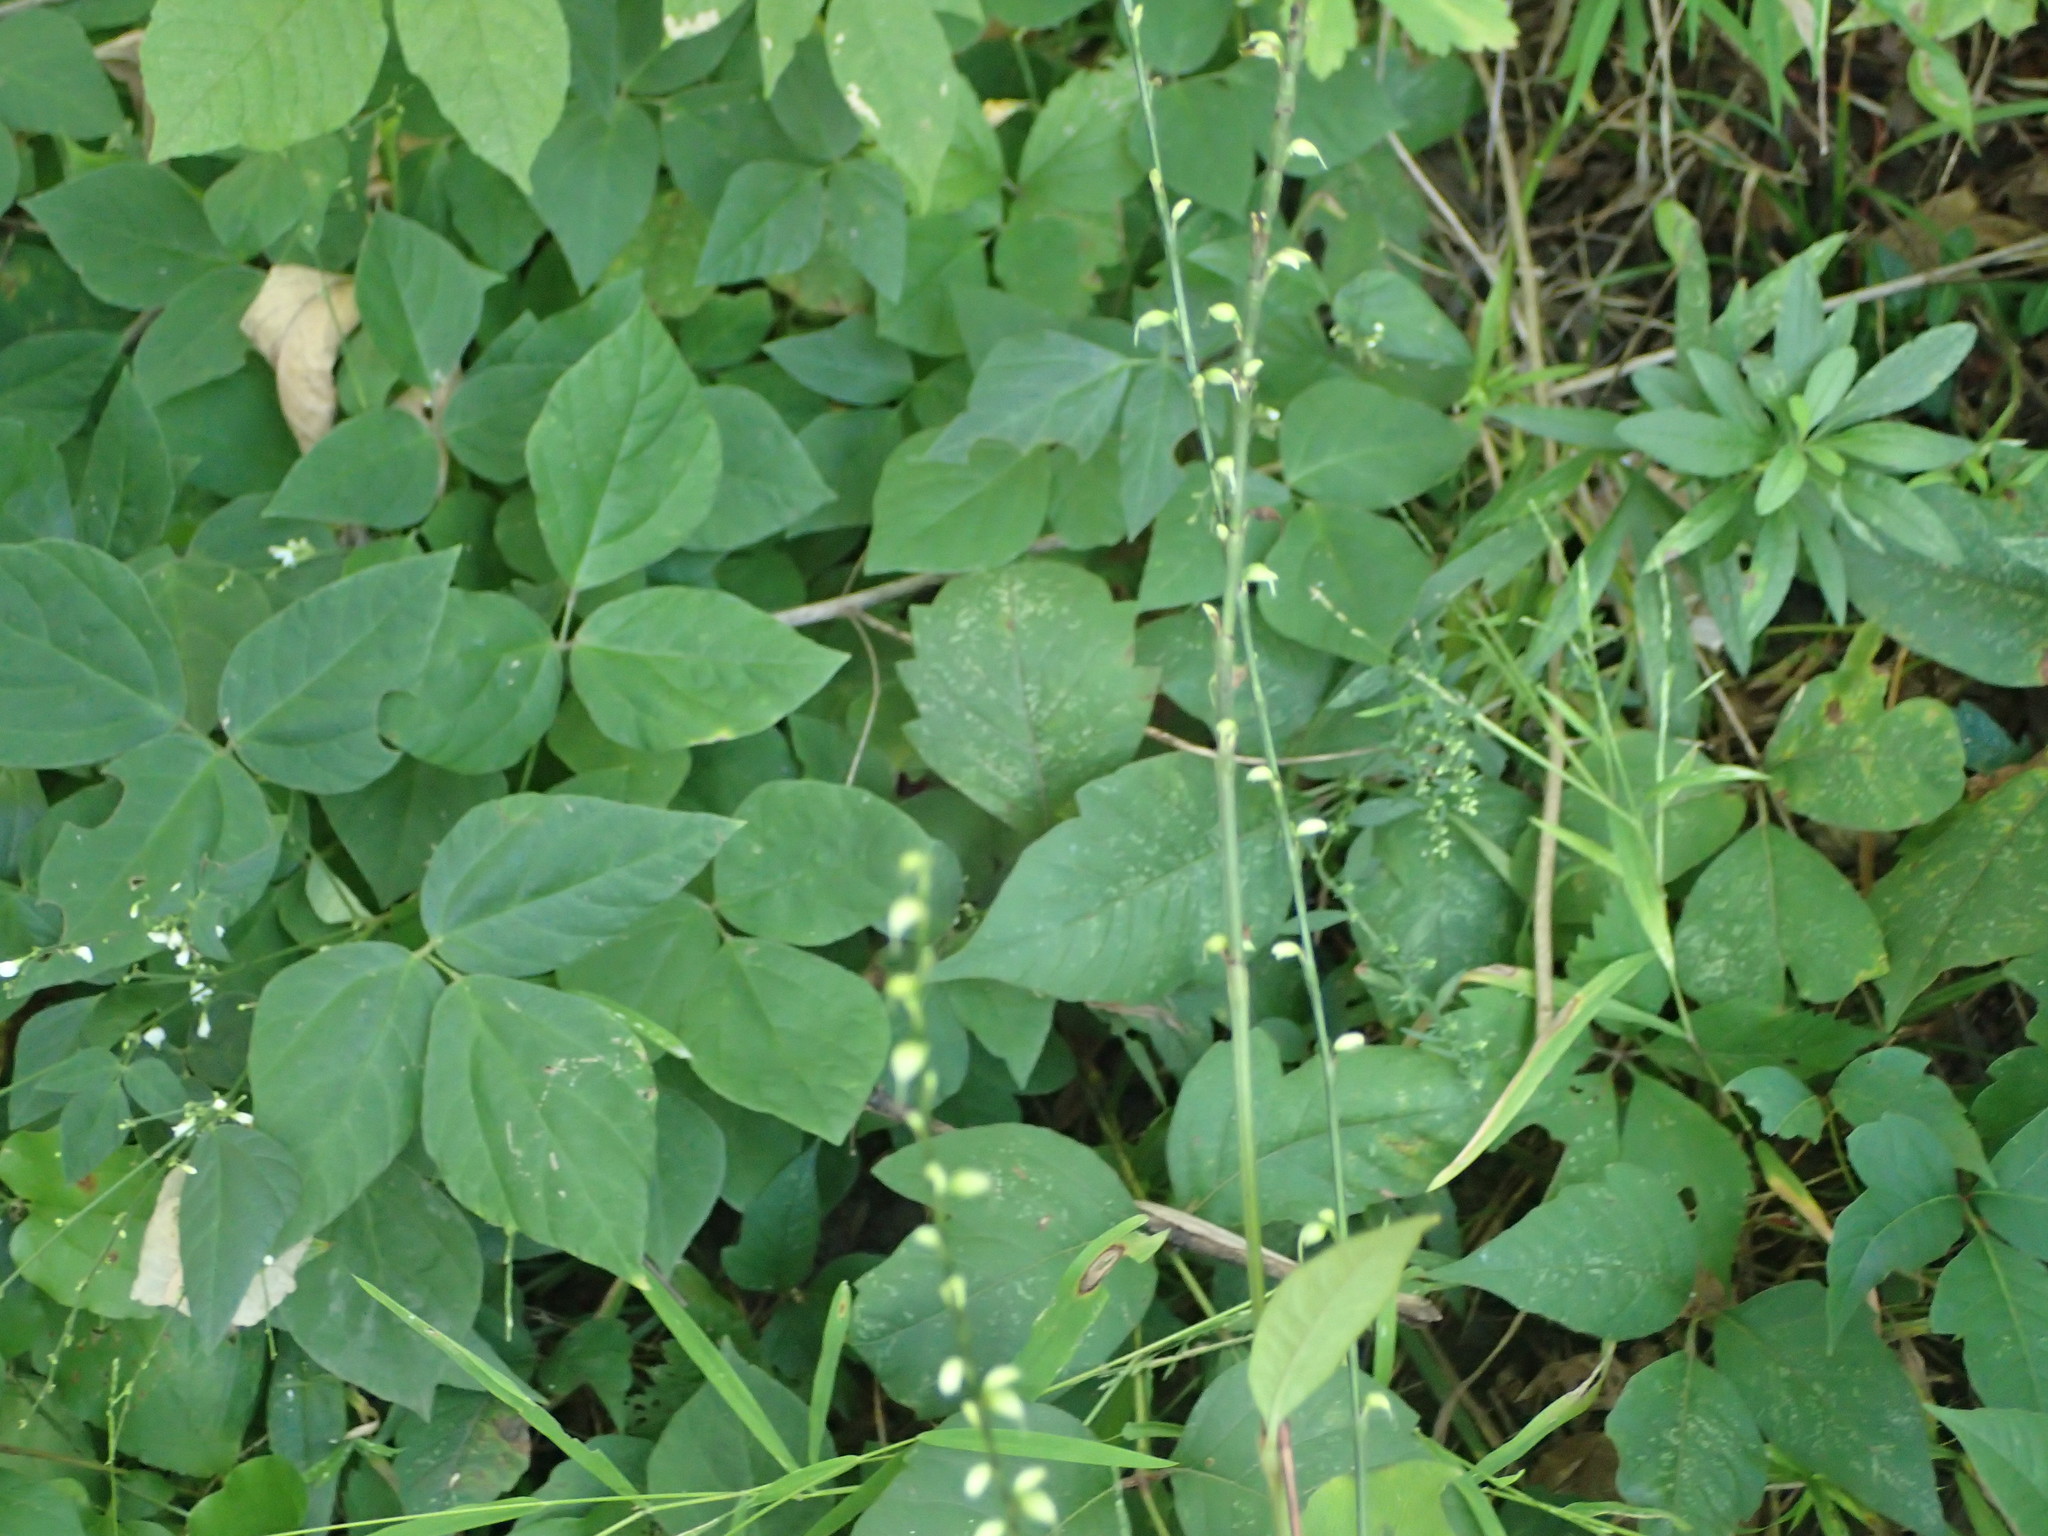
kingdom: Plantae
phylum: Tracheophyta
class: Magnoliopsida
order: Caryophyllales
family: Polygonaceae
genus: Persicaria
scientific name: Persicaria virginiana
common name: Jumpseed
